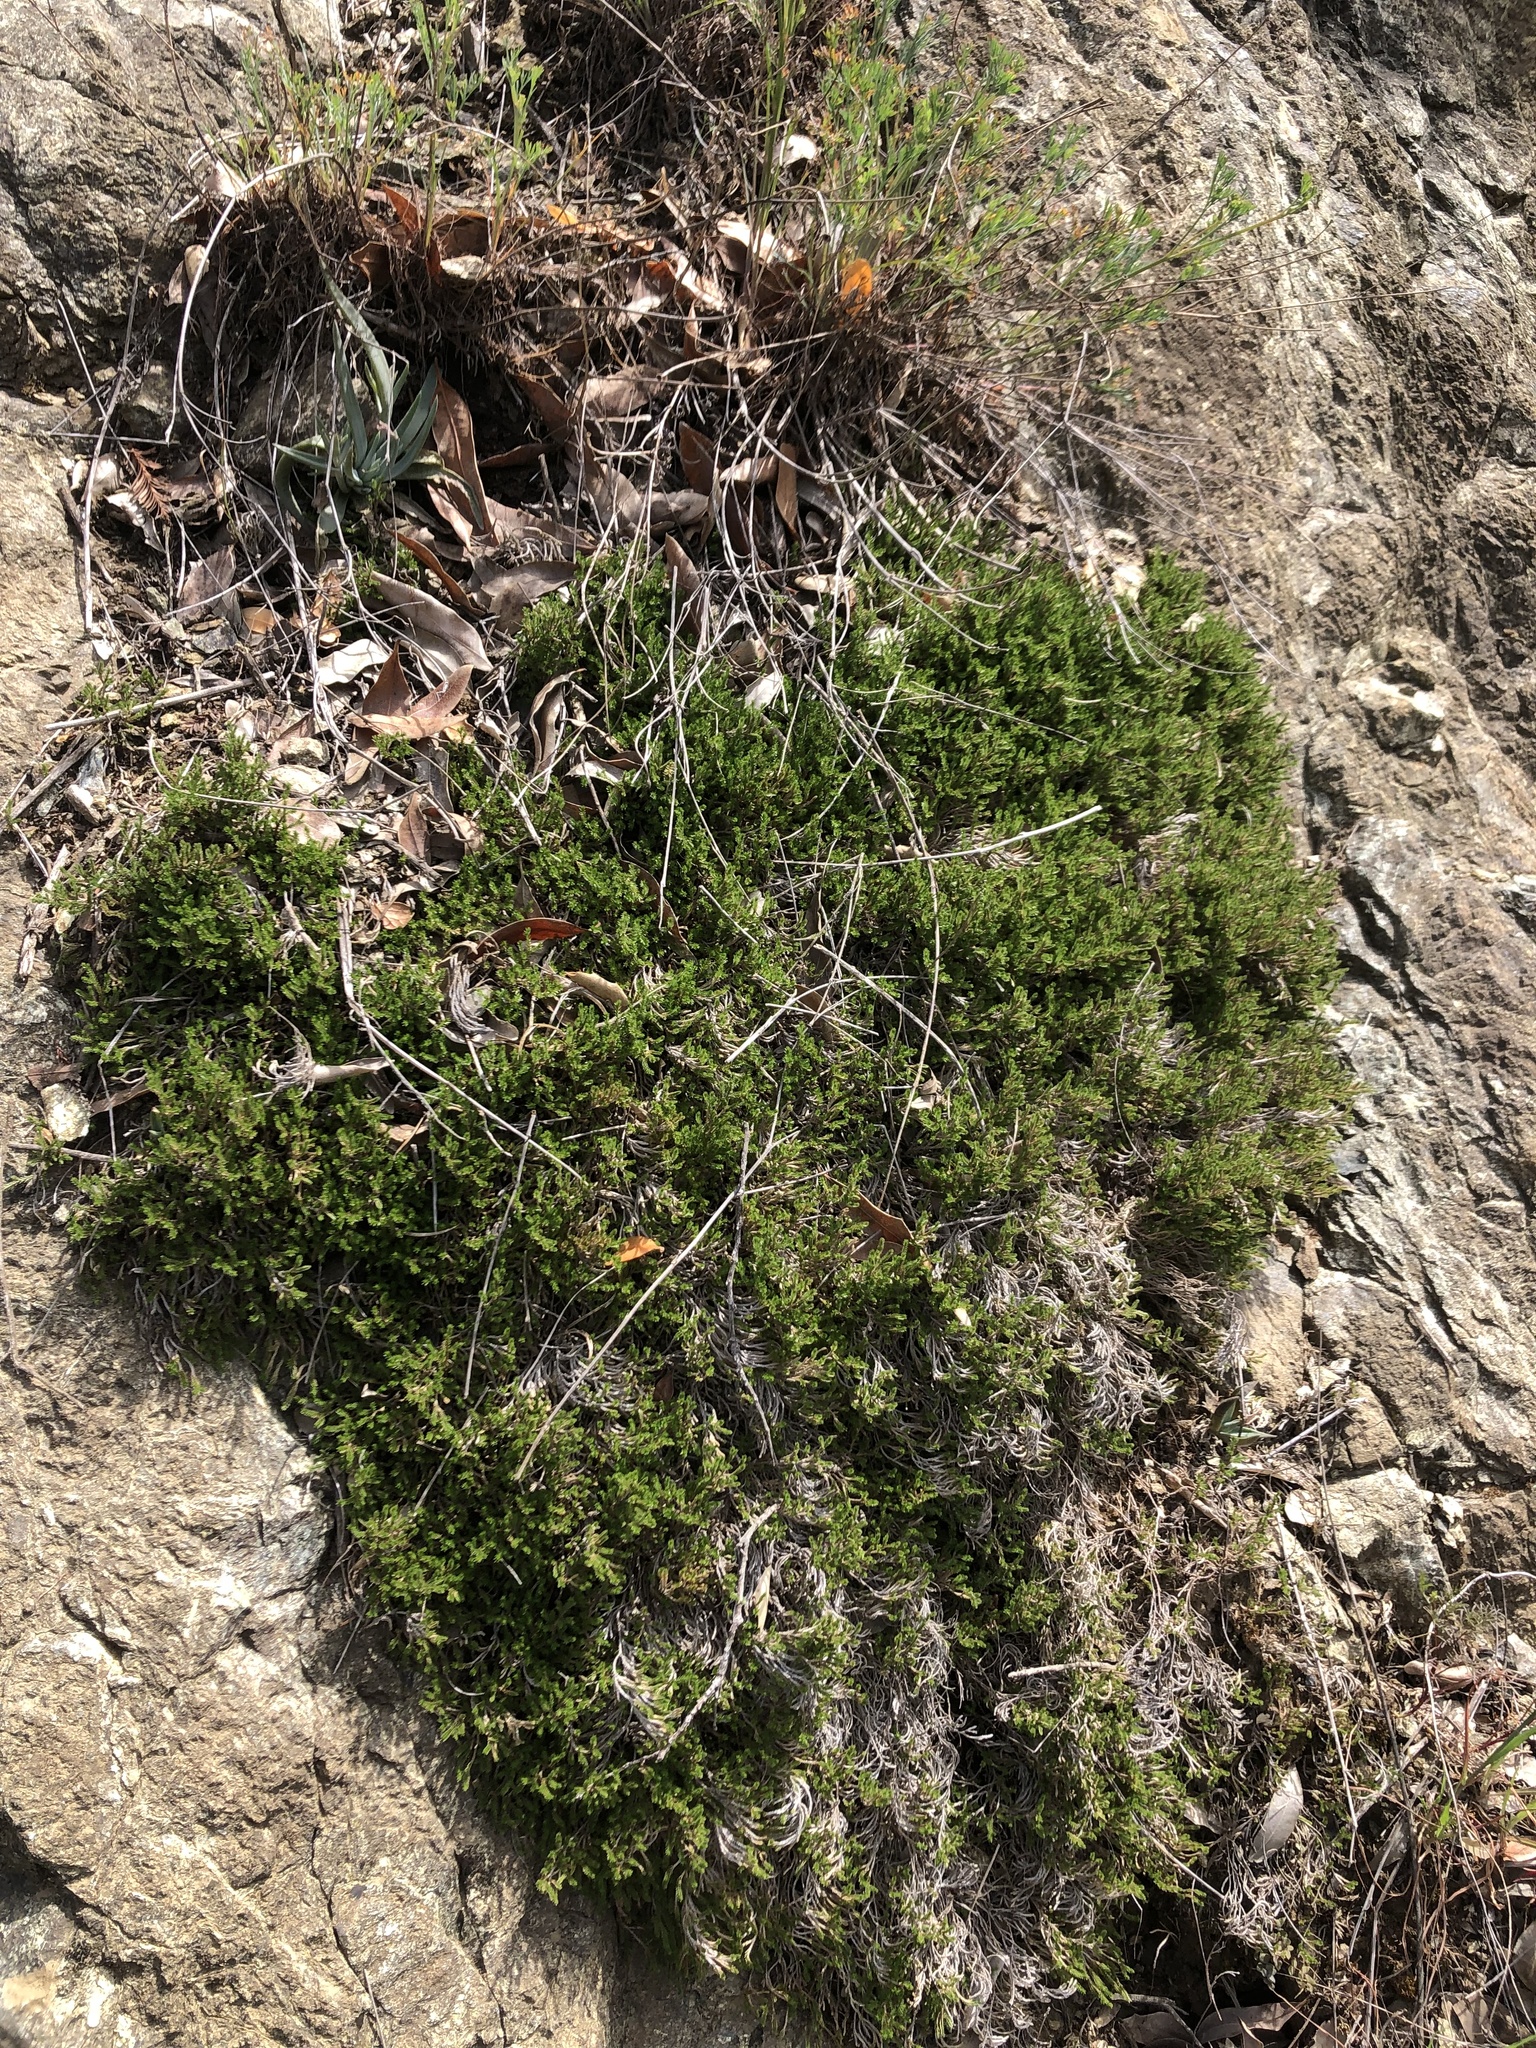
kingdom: Plantae
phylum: Tracheophyta
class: Lycopodiopsida
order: Selaginellales
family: Selaginellaceae
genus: Selaginella
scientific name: Selaginella bigelovii
